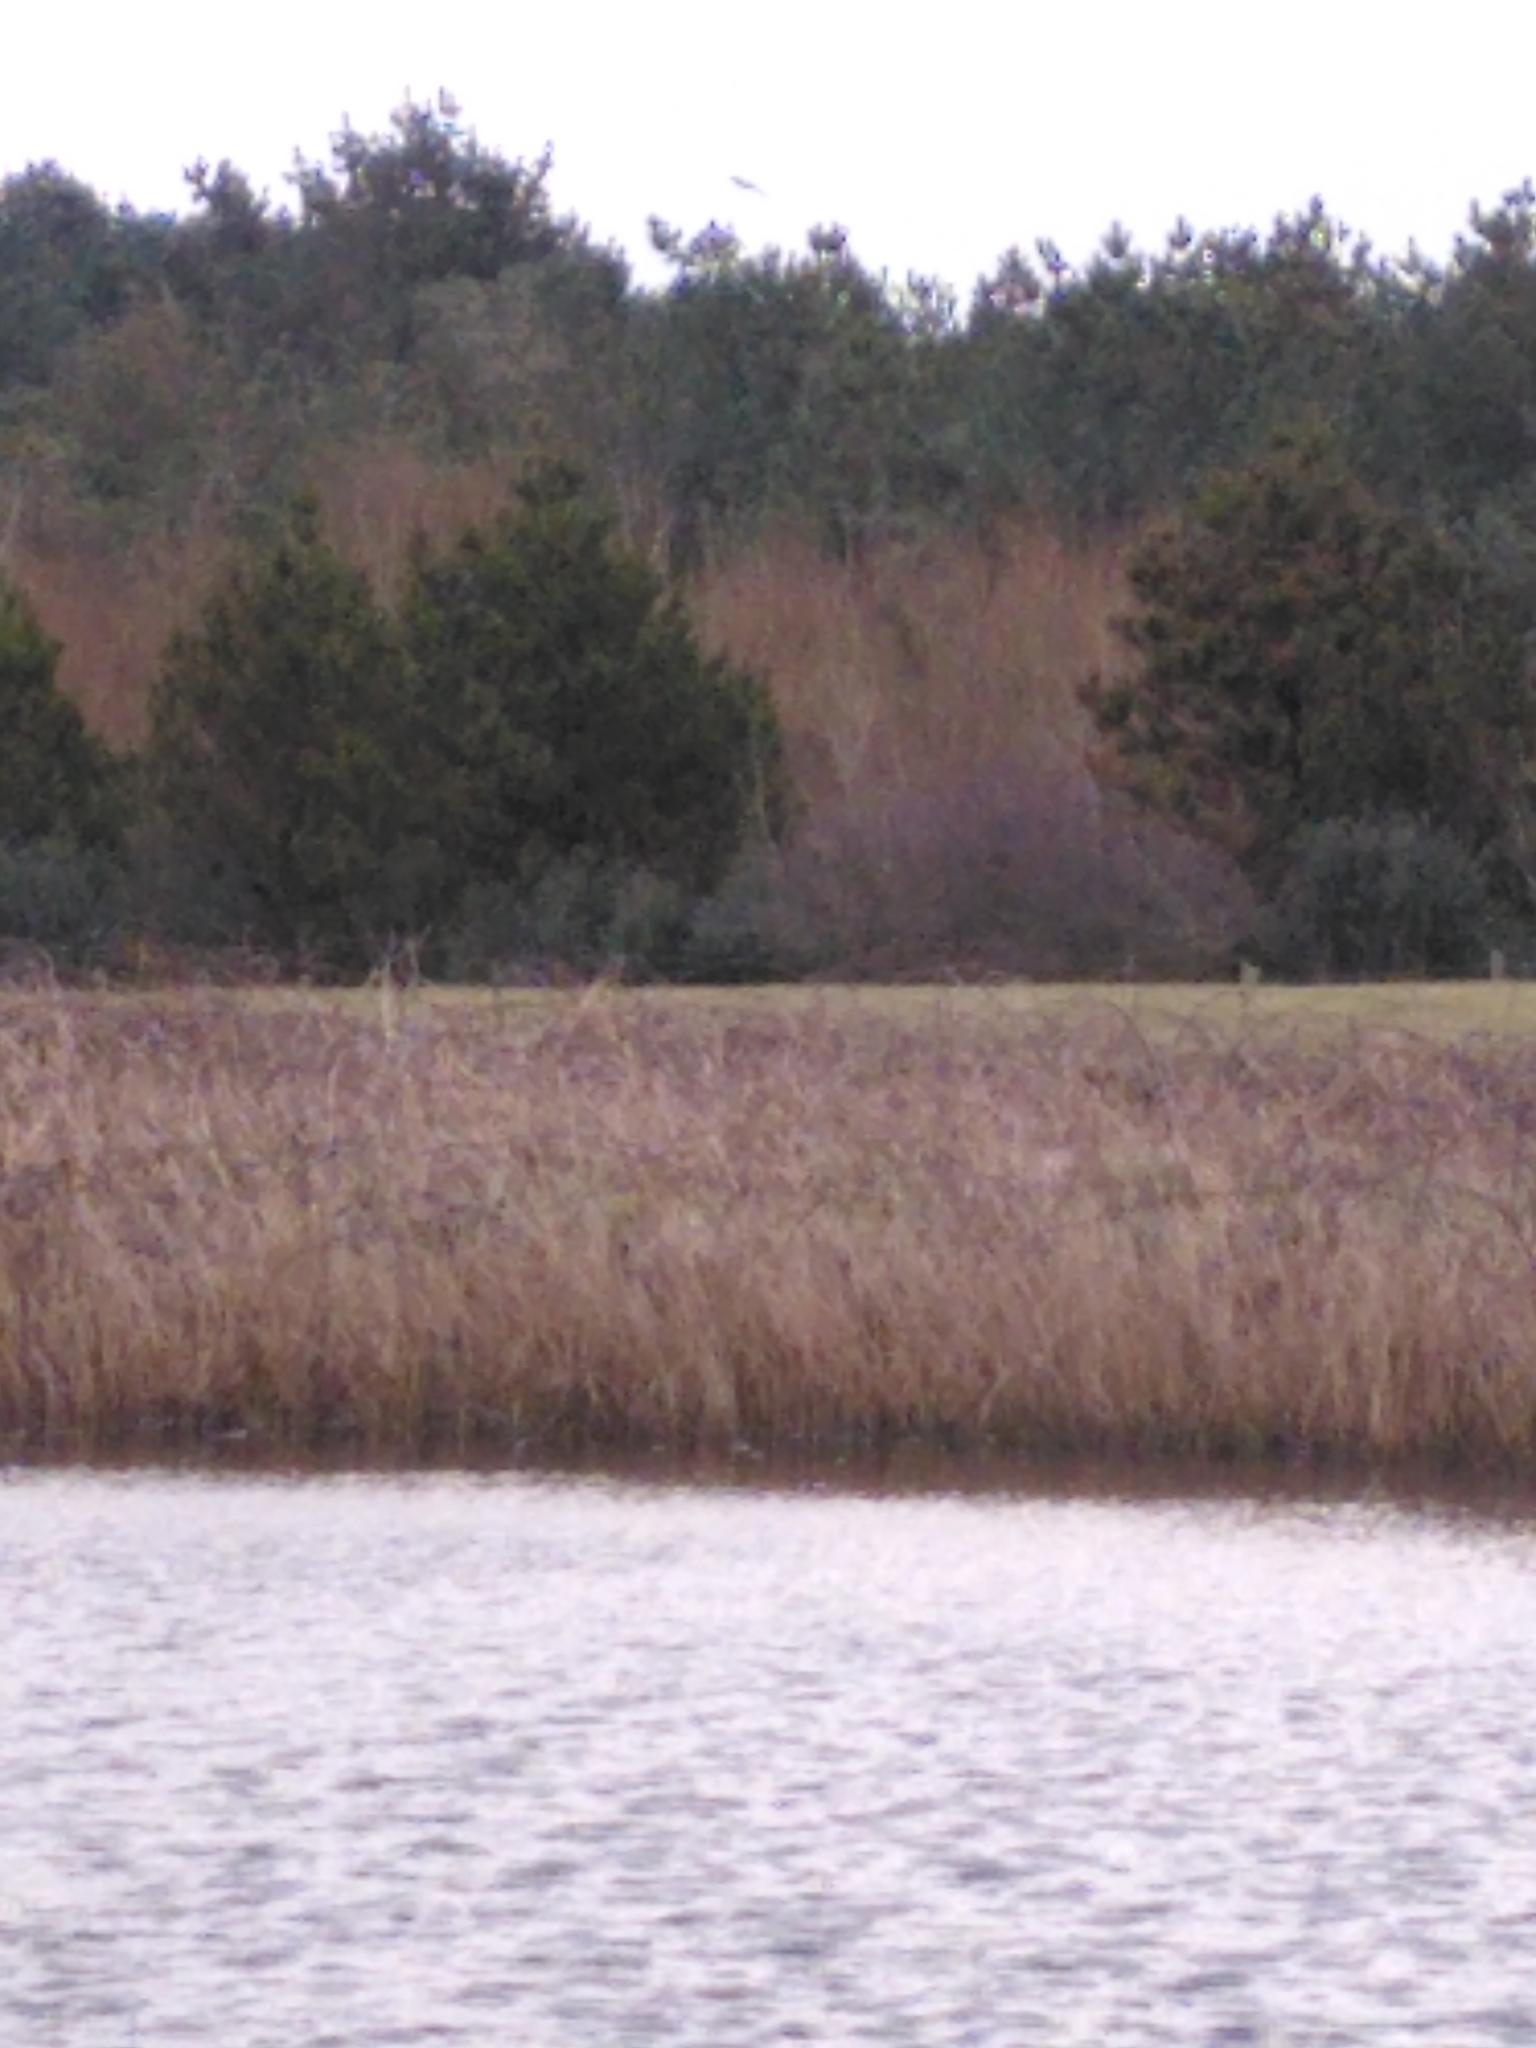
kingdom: Animalia
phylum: Chordata
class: Aves
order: Passeriformes
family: Corvidae
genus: Pica
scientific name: Pica pica
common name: Eurasian magpie
